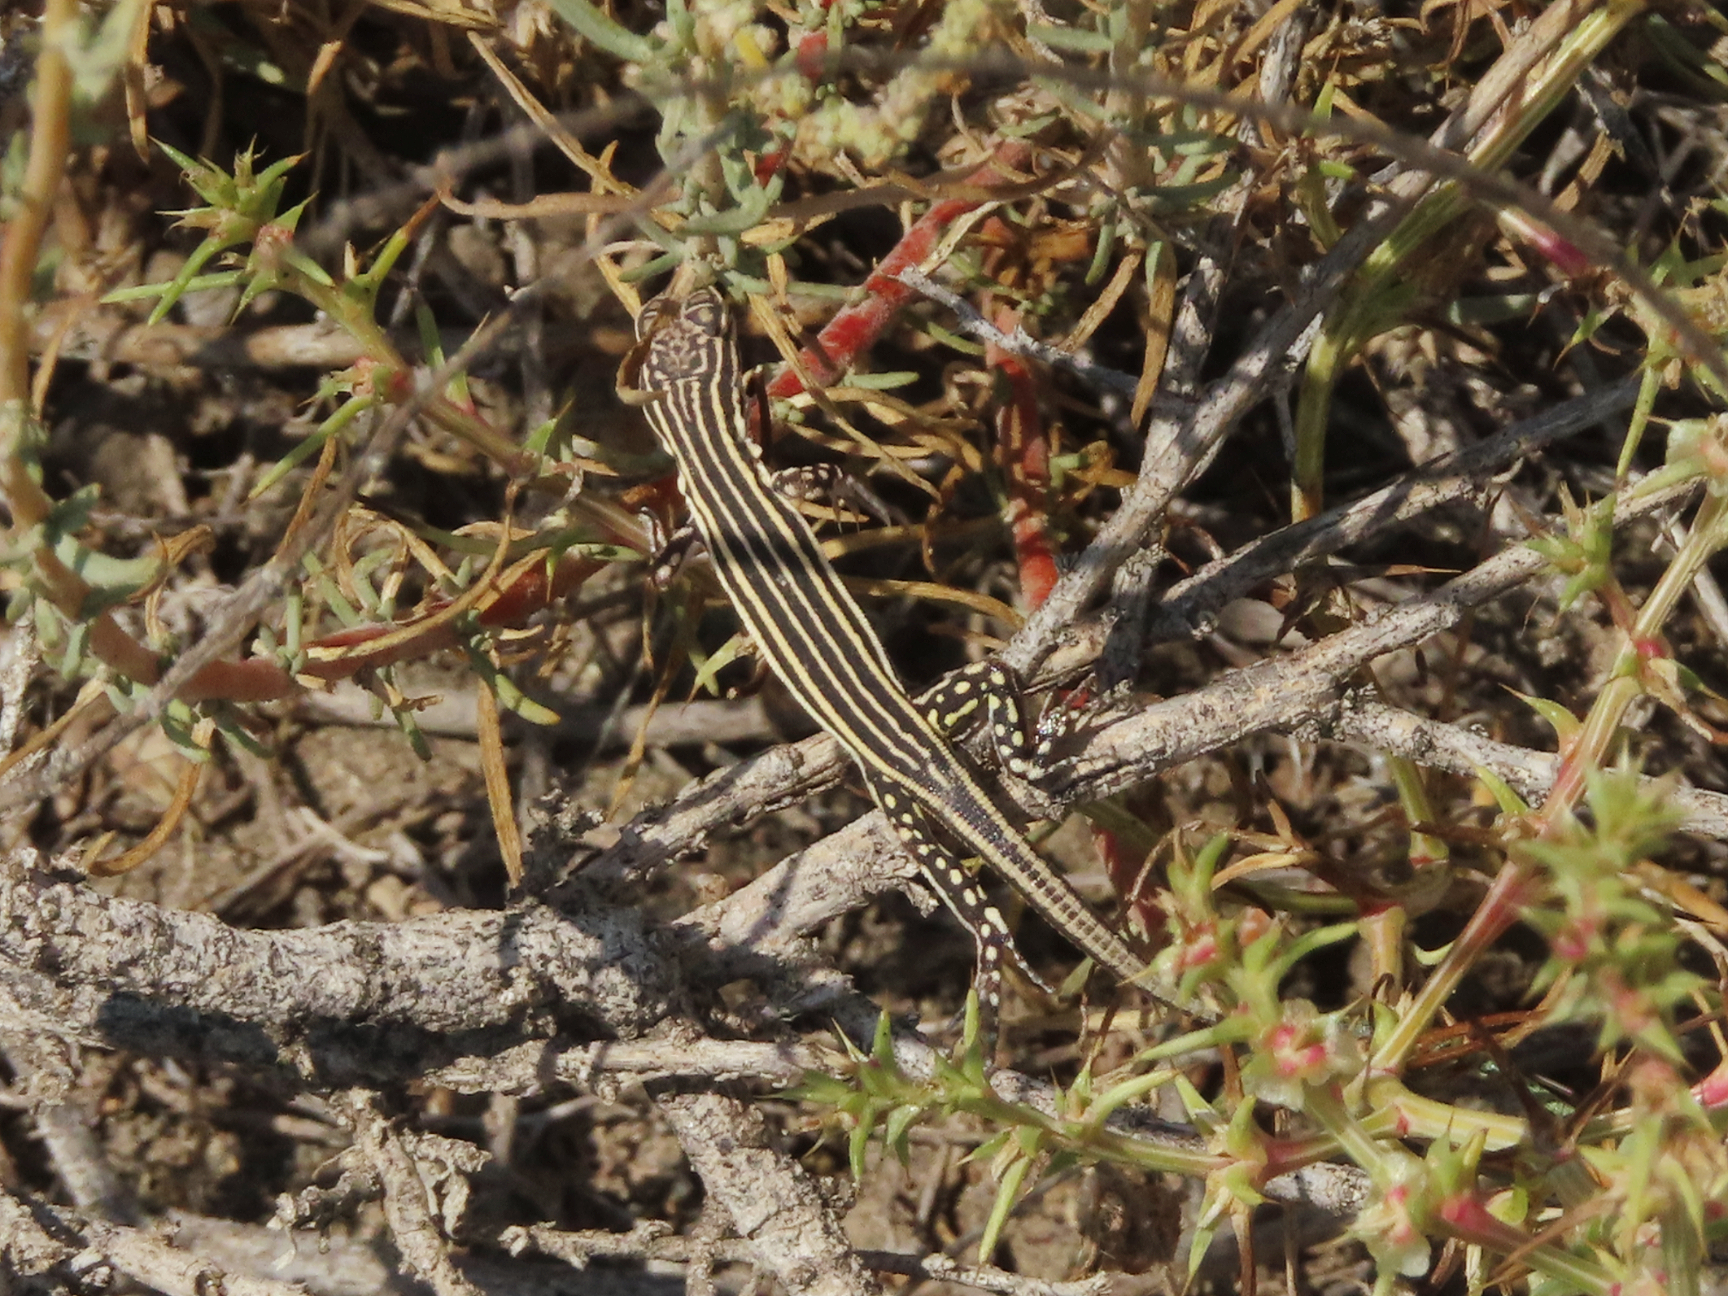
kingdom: Animalia
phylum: Chordata
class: Squamata
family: Lacertidae
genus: Eremias
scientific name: Eremias pleskei
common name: Pleske's racerunner
